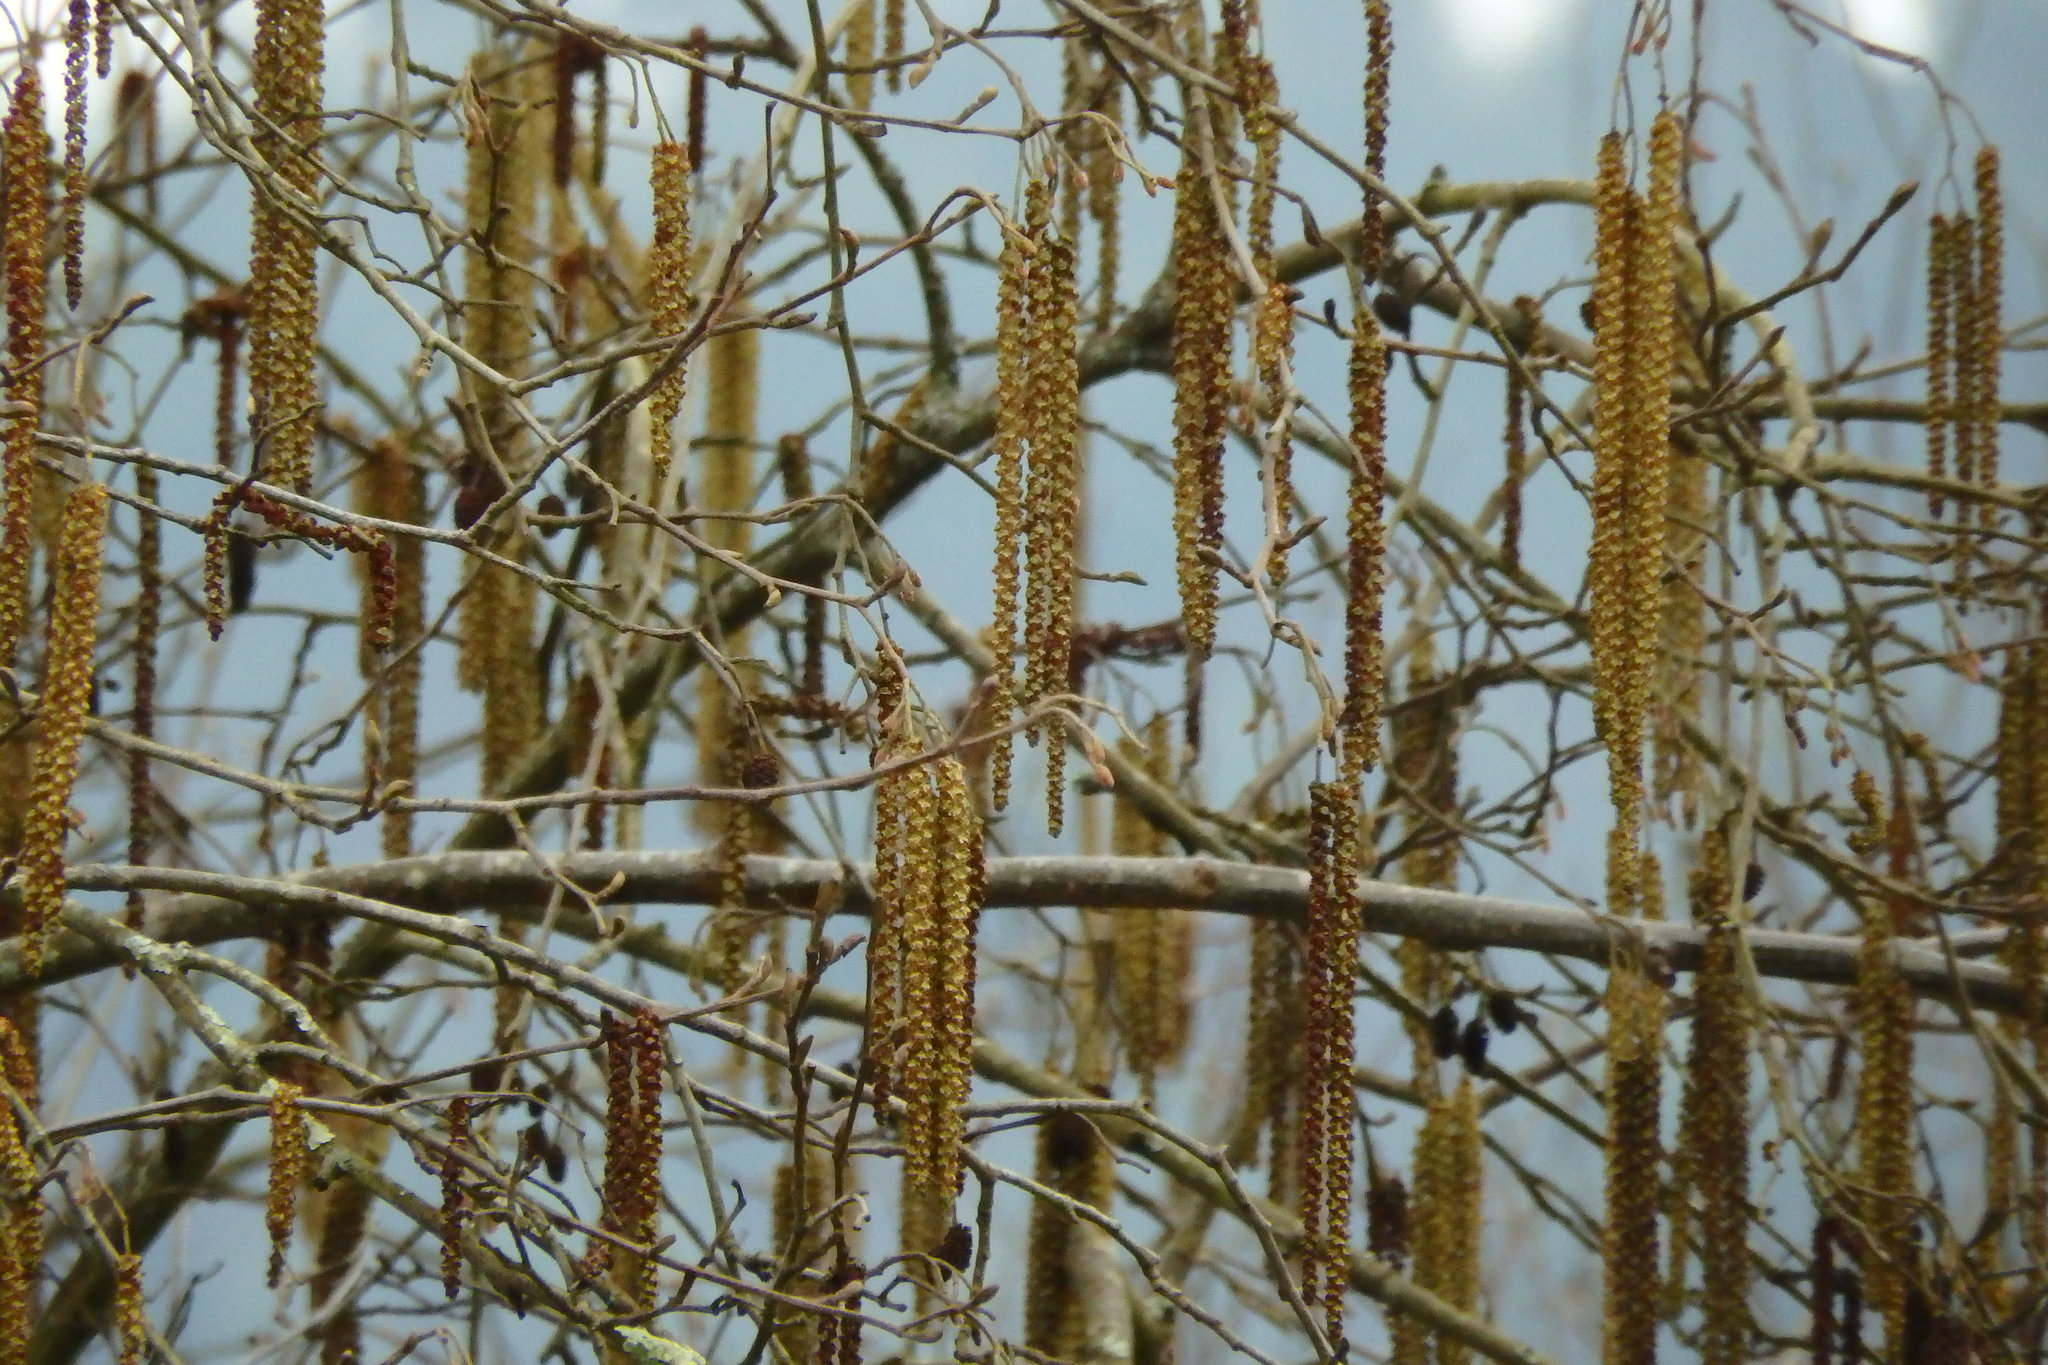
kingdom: Plantae
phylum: Tracheophyta
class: Magnoliopsida
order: Fagales
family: Betulaceae
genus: Alnus
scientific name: Alnus lusitanica
